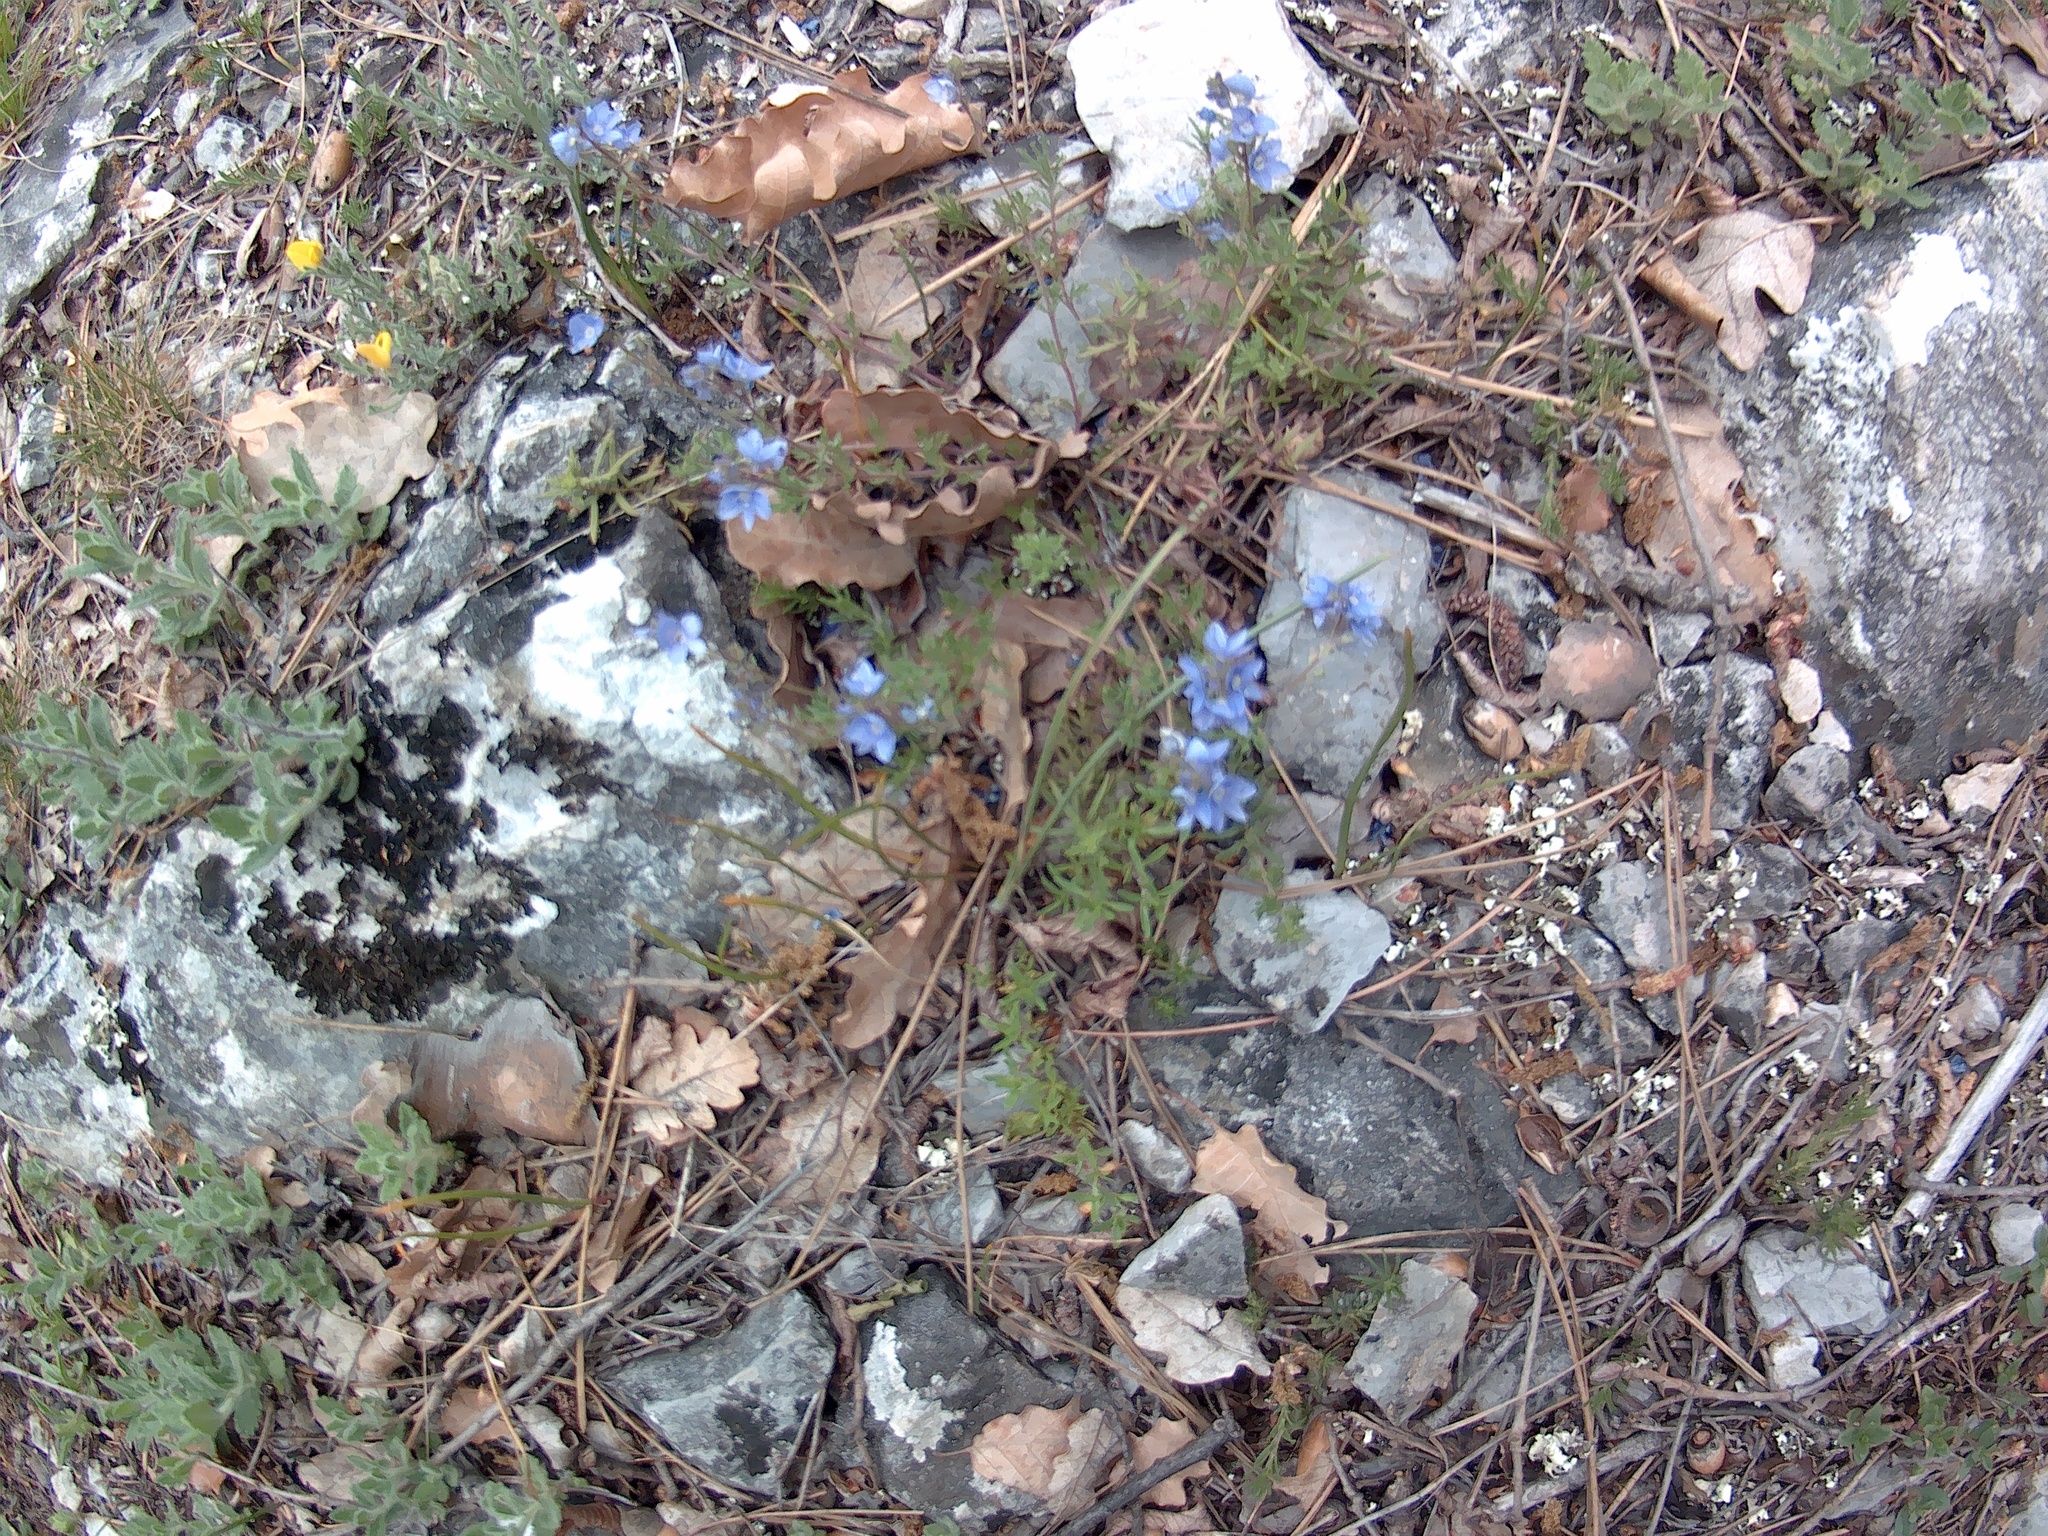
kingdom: Plantae
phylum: Tracheophyta
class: Magnoliopsida
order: Lamiales
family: Plantaginaceae
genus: Veronica
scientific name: Veronica capsellicarpa
